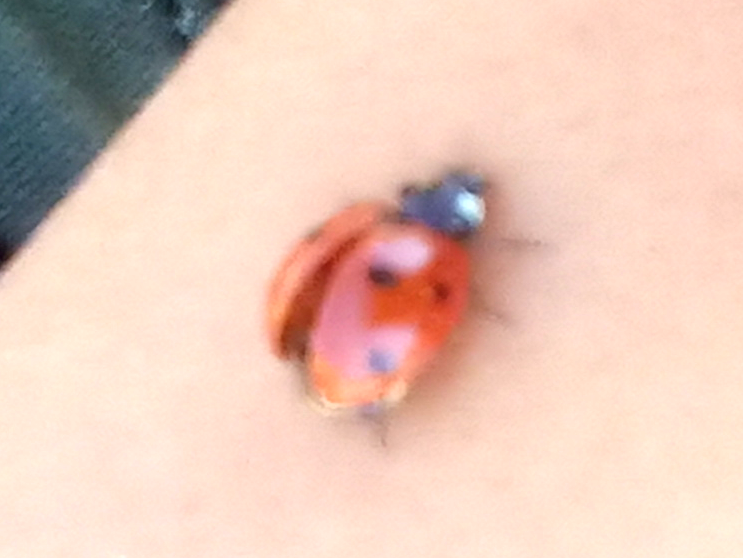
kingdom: Animalia
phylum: Arthropoda
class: Insecta
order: Coleoptera
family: Coccinellidae
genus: Coccinella
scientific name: Coccinella septempunctata
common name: Sevenspotted lady beetle
